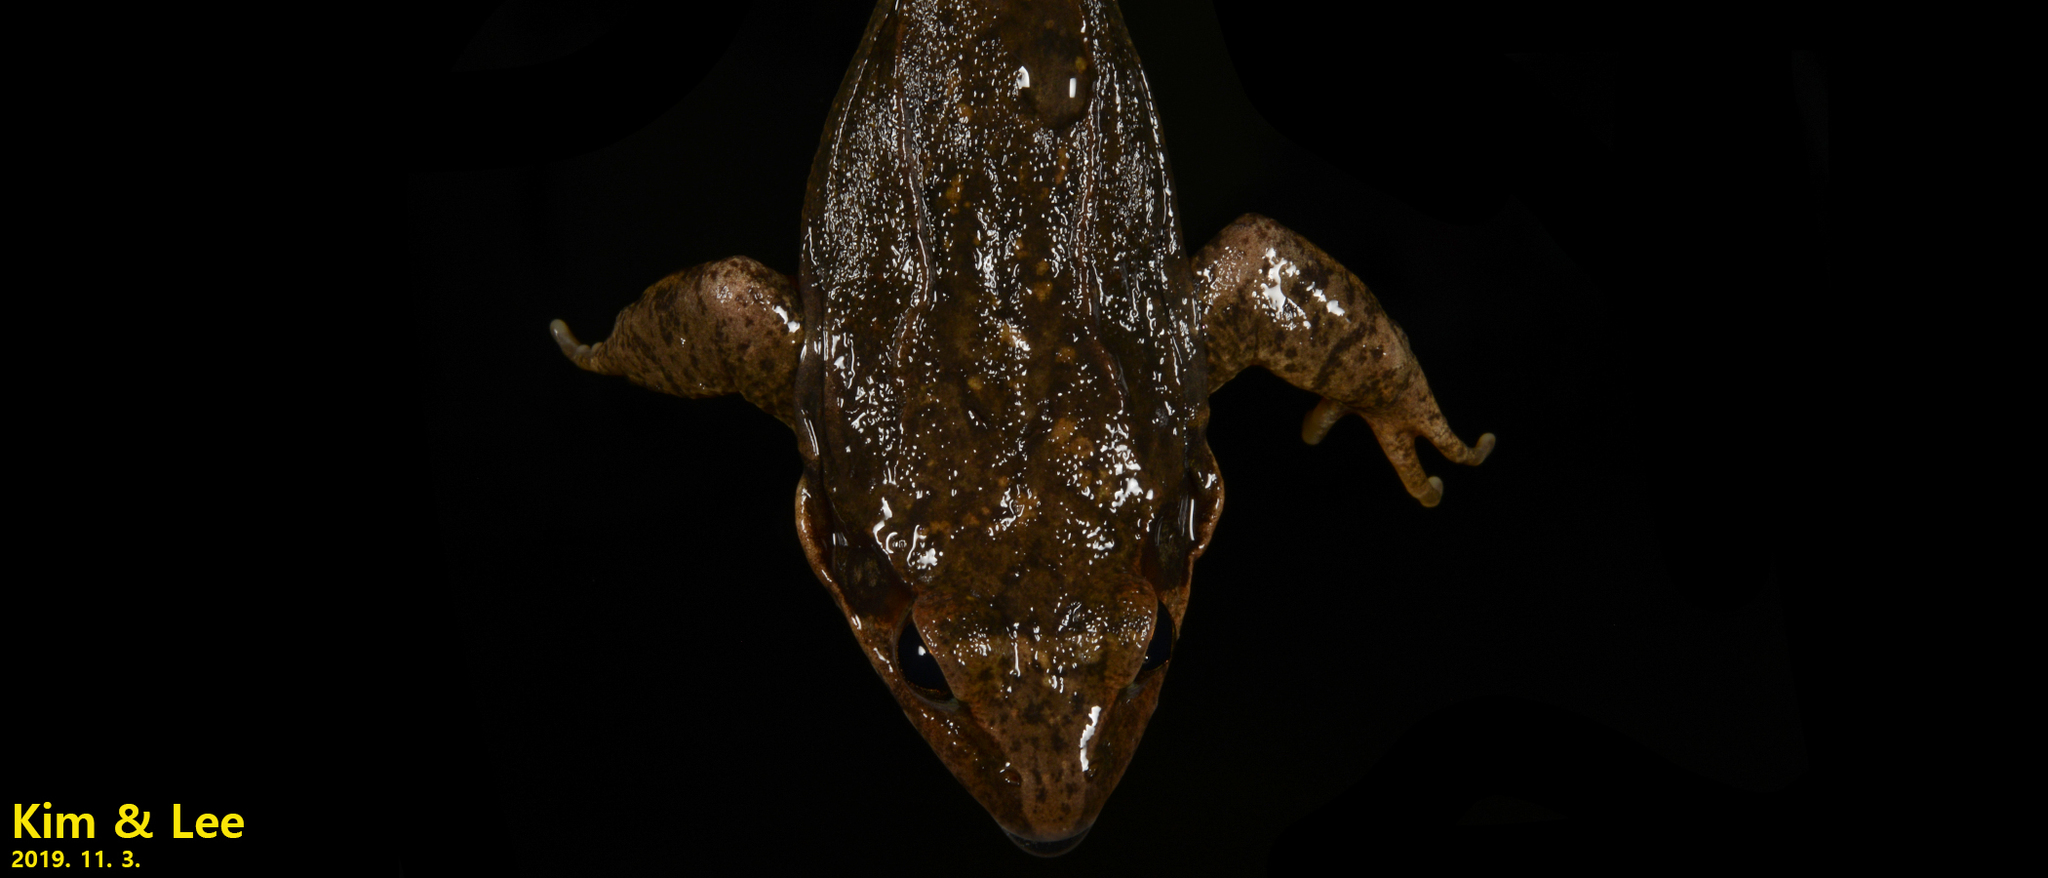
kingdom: Animalia
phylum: Chordata
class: Amphibia
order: Anura
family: Ranidae
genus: Rana
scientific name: Rana uenoi
